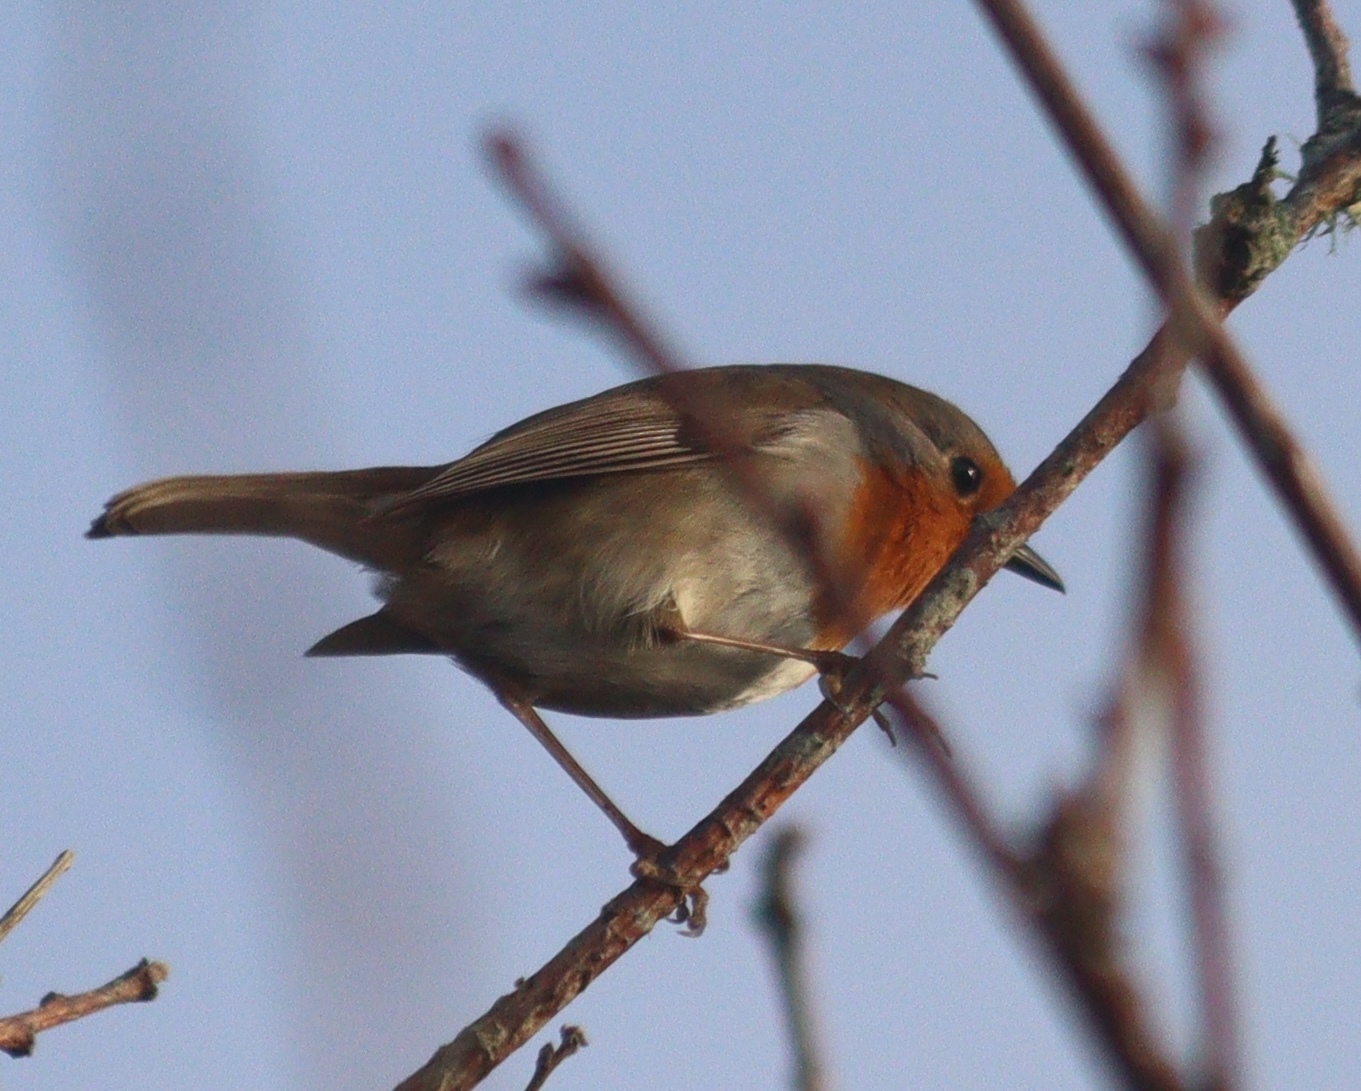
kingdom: Animalia
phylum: Chordata
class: Aves
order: Passeriformes
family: Muscicapidae
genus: Erithacus
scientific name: Erithacus rubecula
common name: European robin
